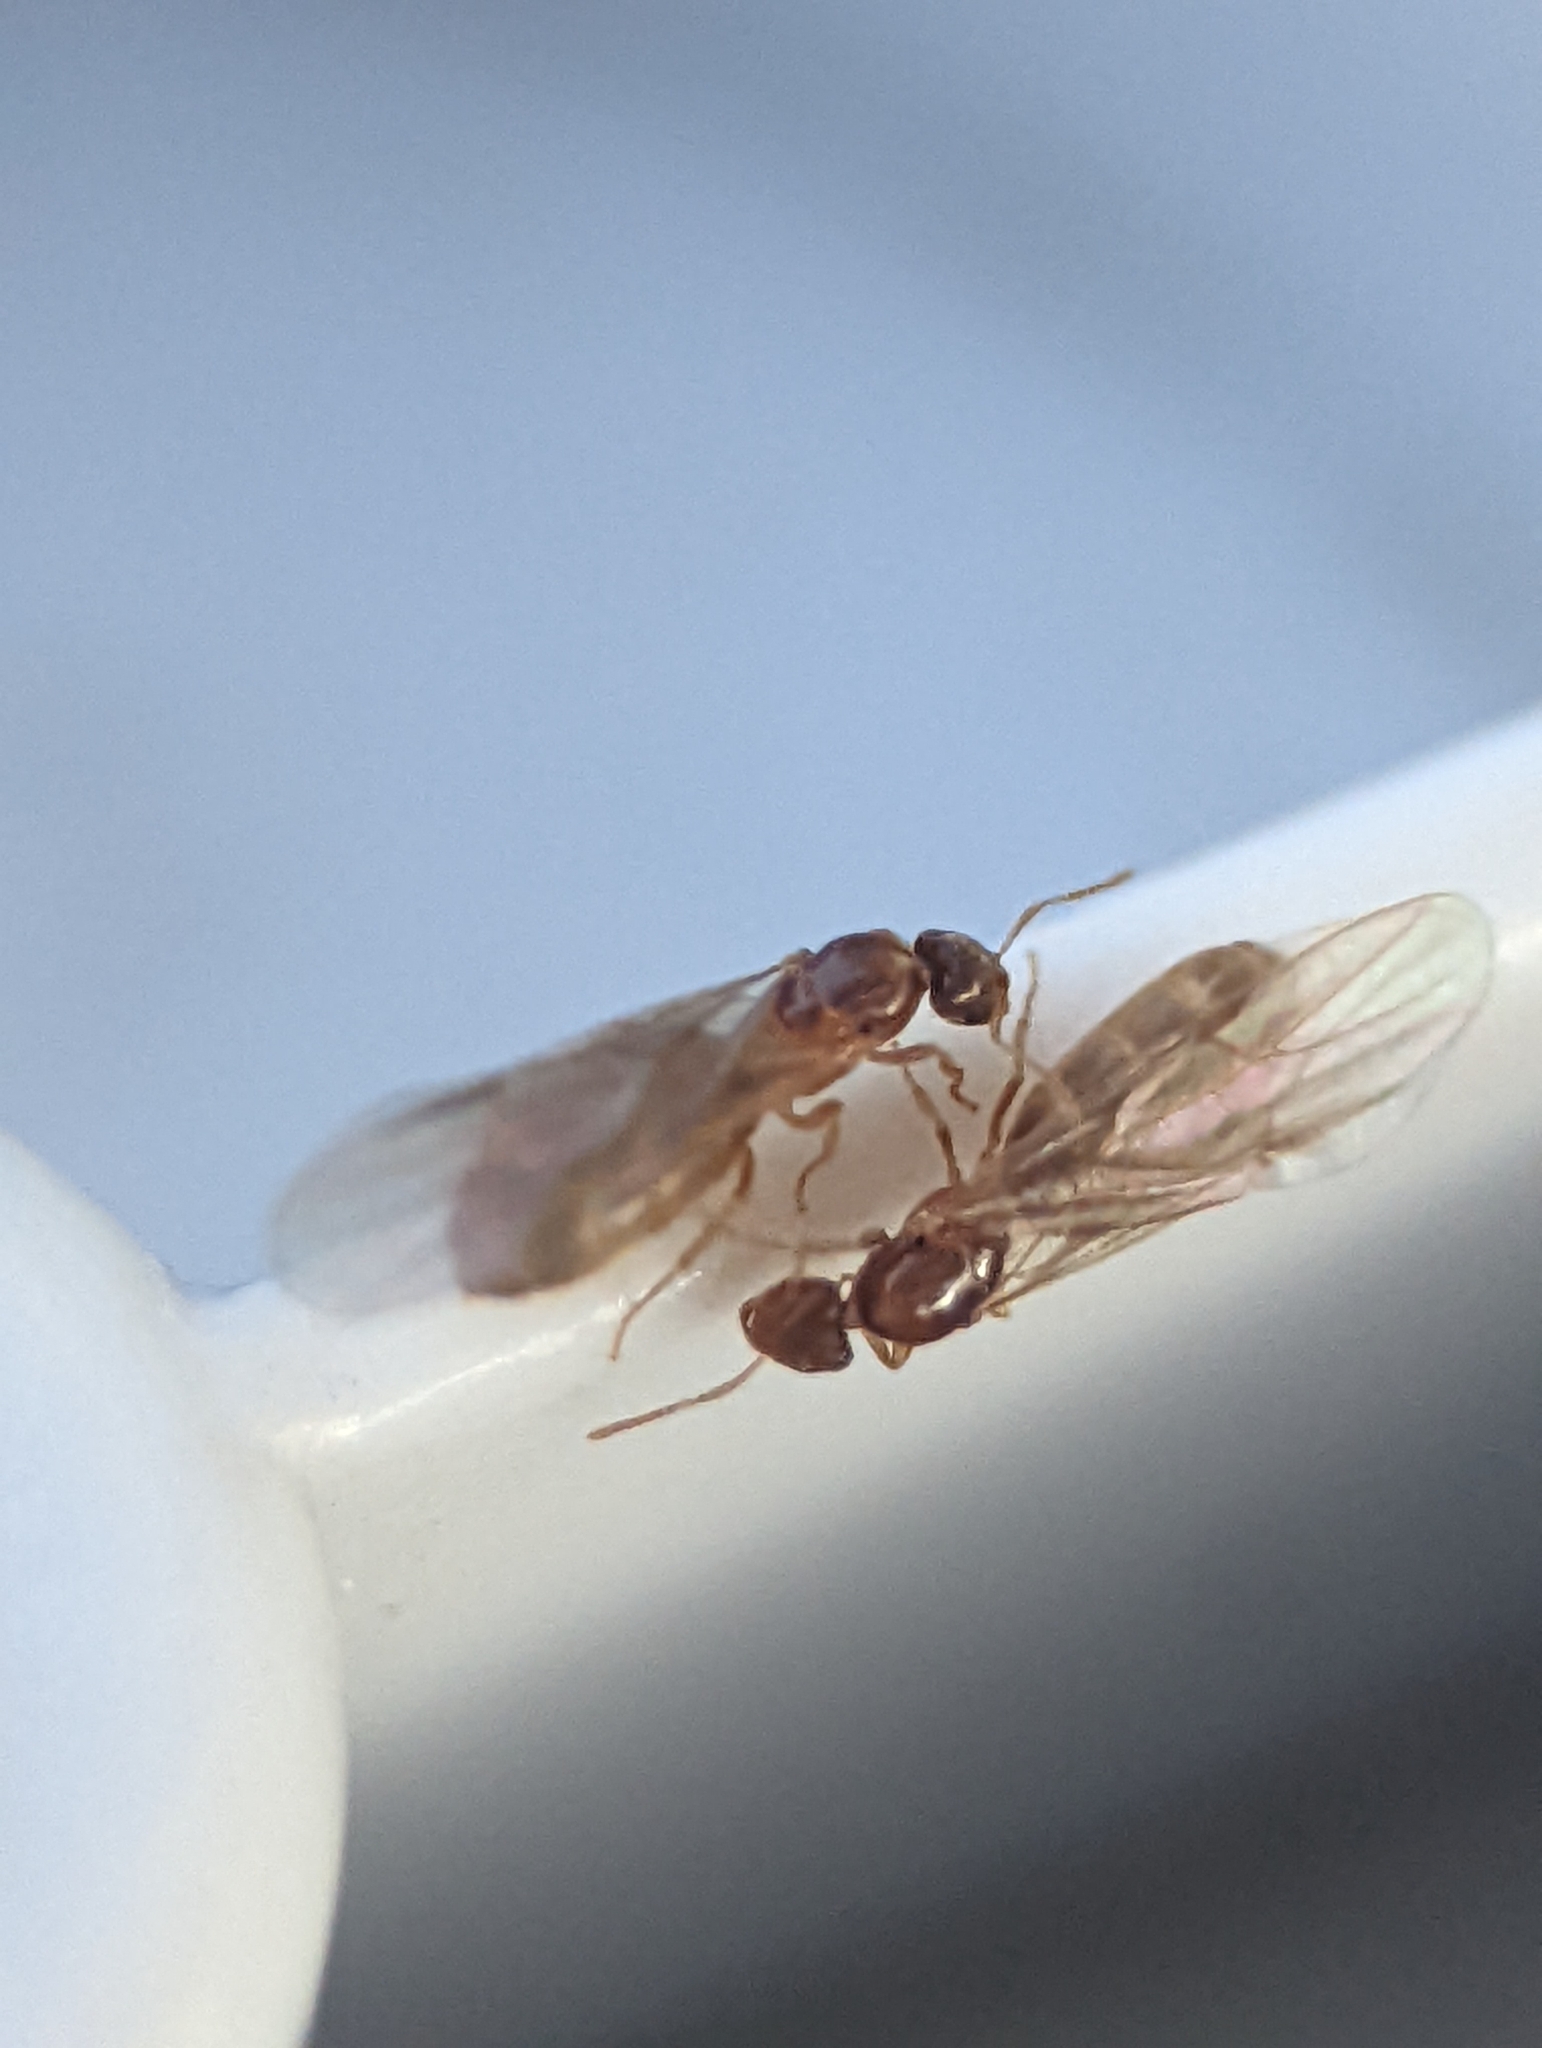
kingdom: Animalia
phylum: Arthropoda
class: Insecta
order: Hymenoptera
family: Formicidae
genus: Brachymyrmex
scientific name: Brachymyrmex depilis
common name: Hairless rover ant
